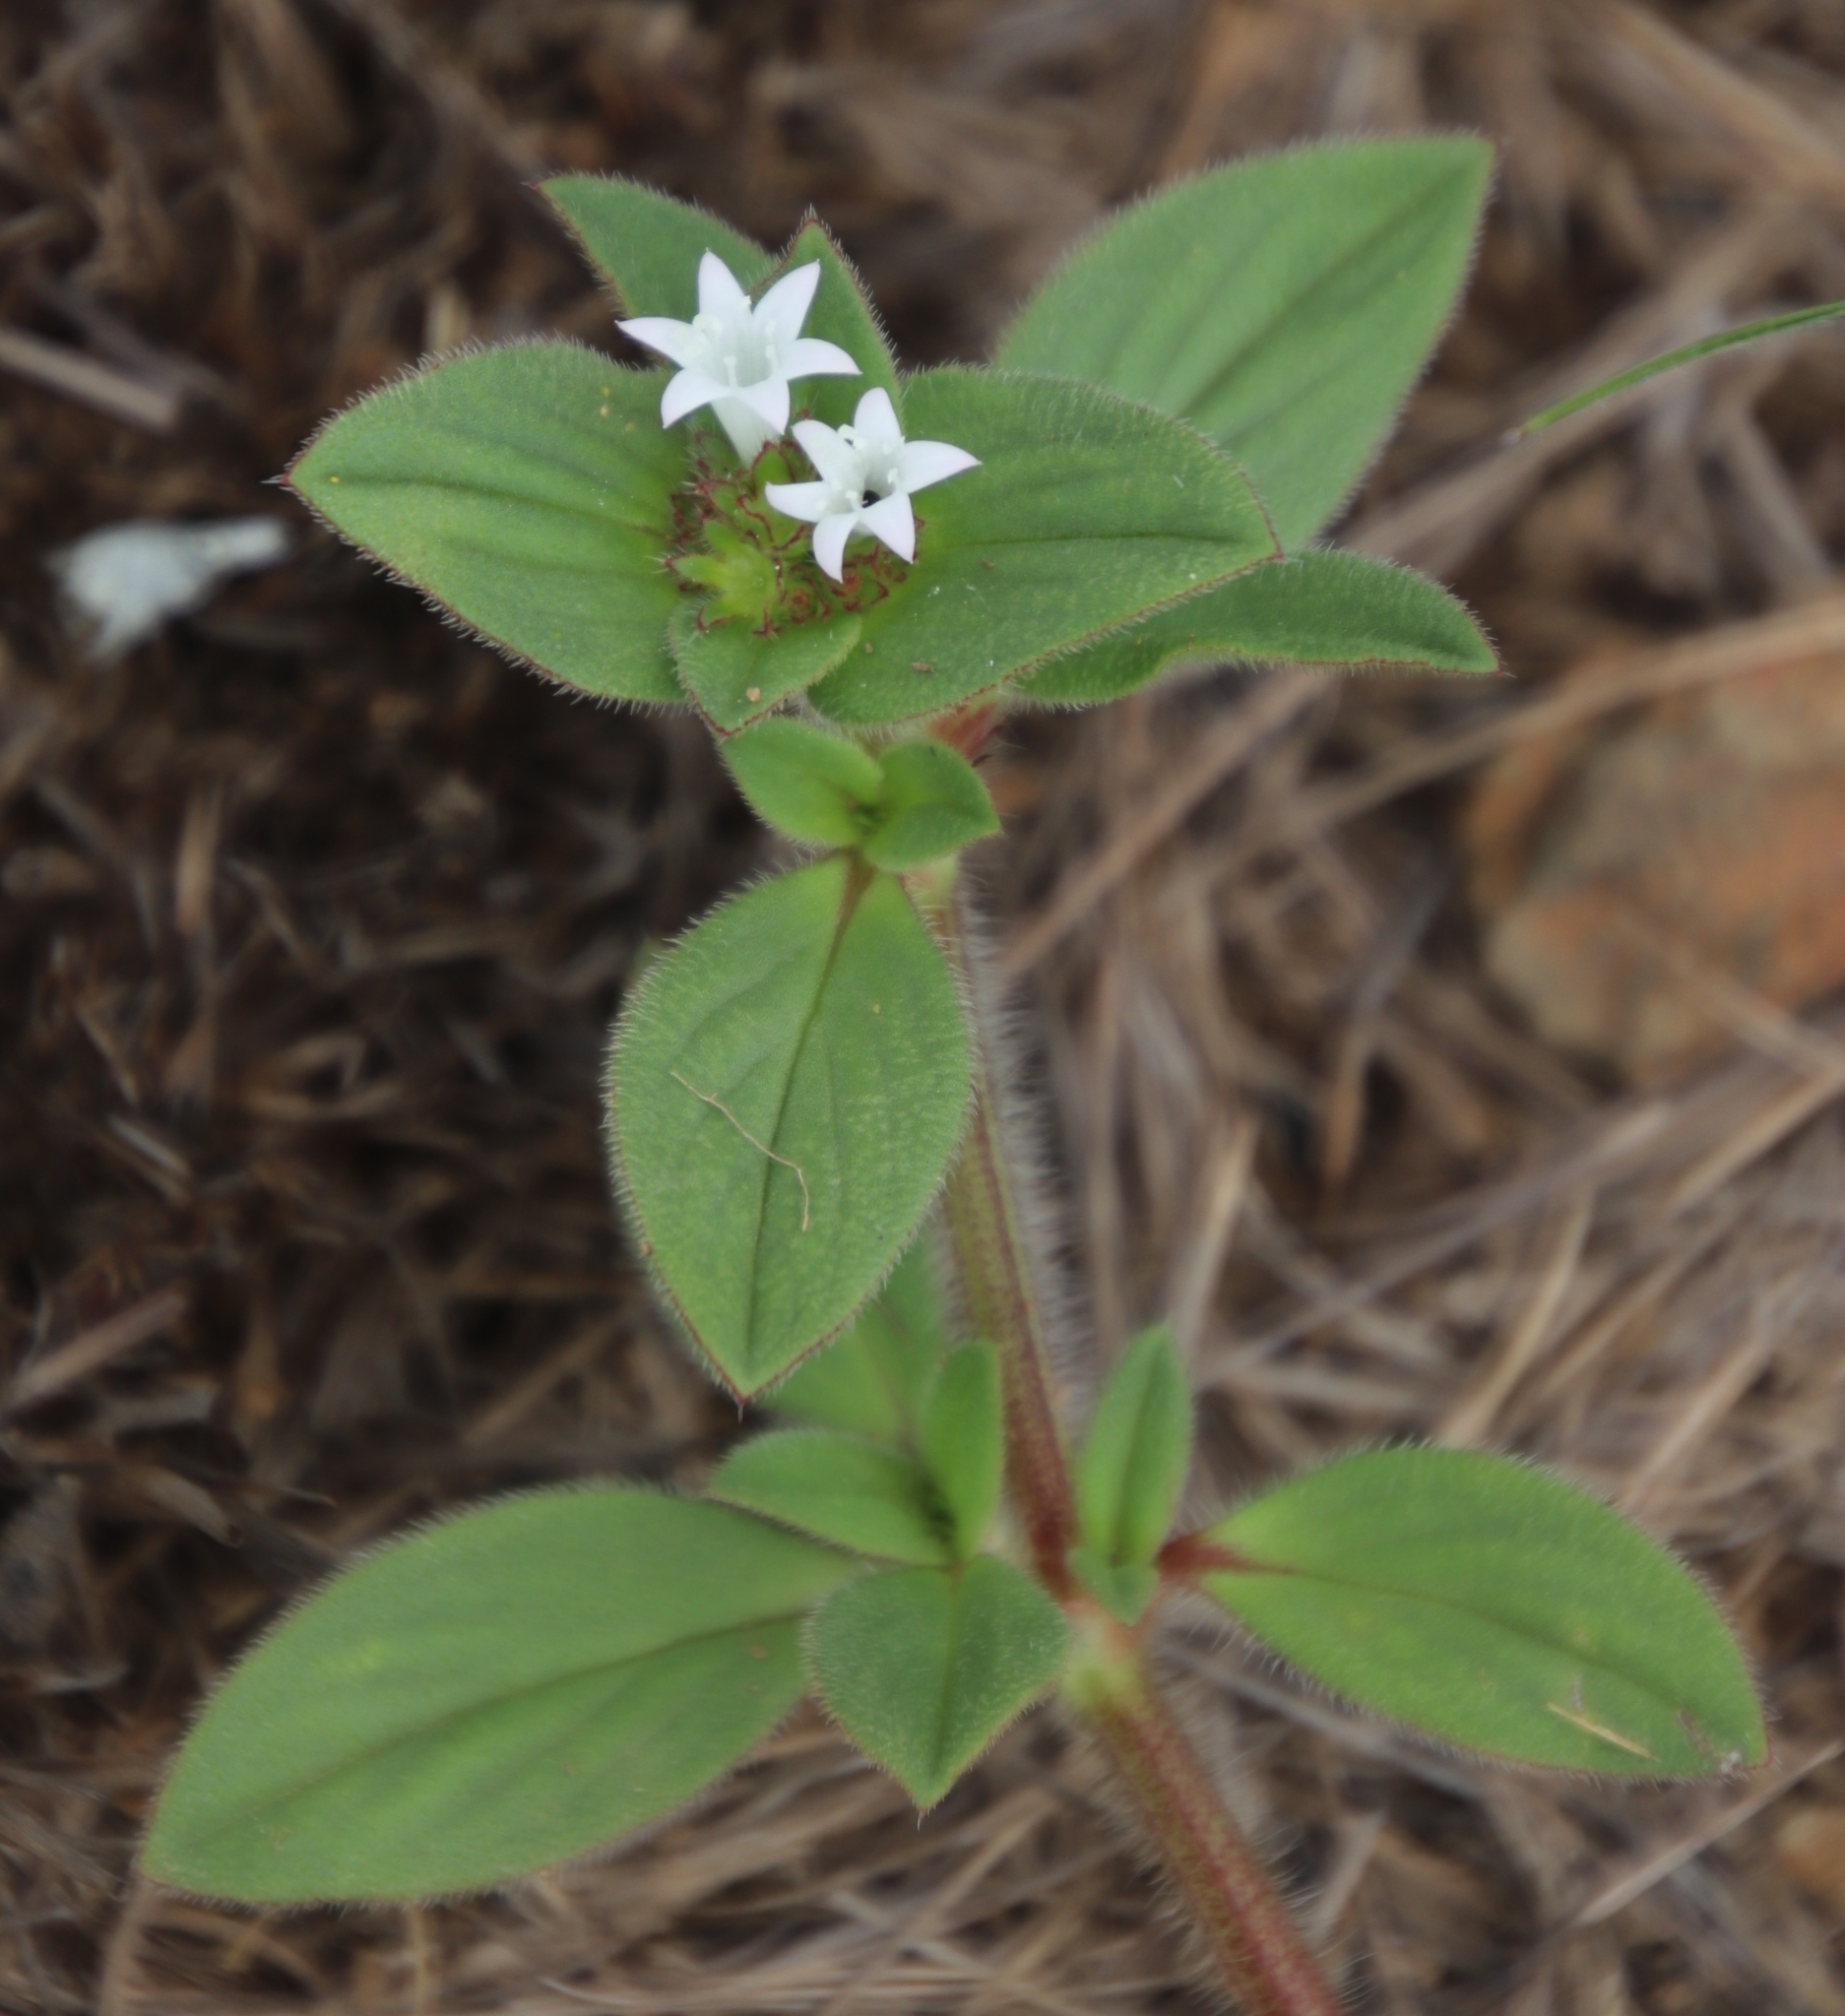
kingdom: Plantae
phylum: Tracheophyta
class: Magnoliopsida
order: Gentianales
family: Rubiaceae
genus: Richardia
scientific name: Richardia brasiliensis
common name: Tropical mexican clover
